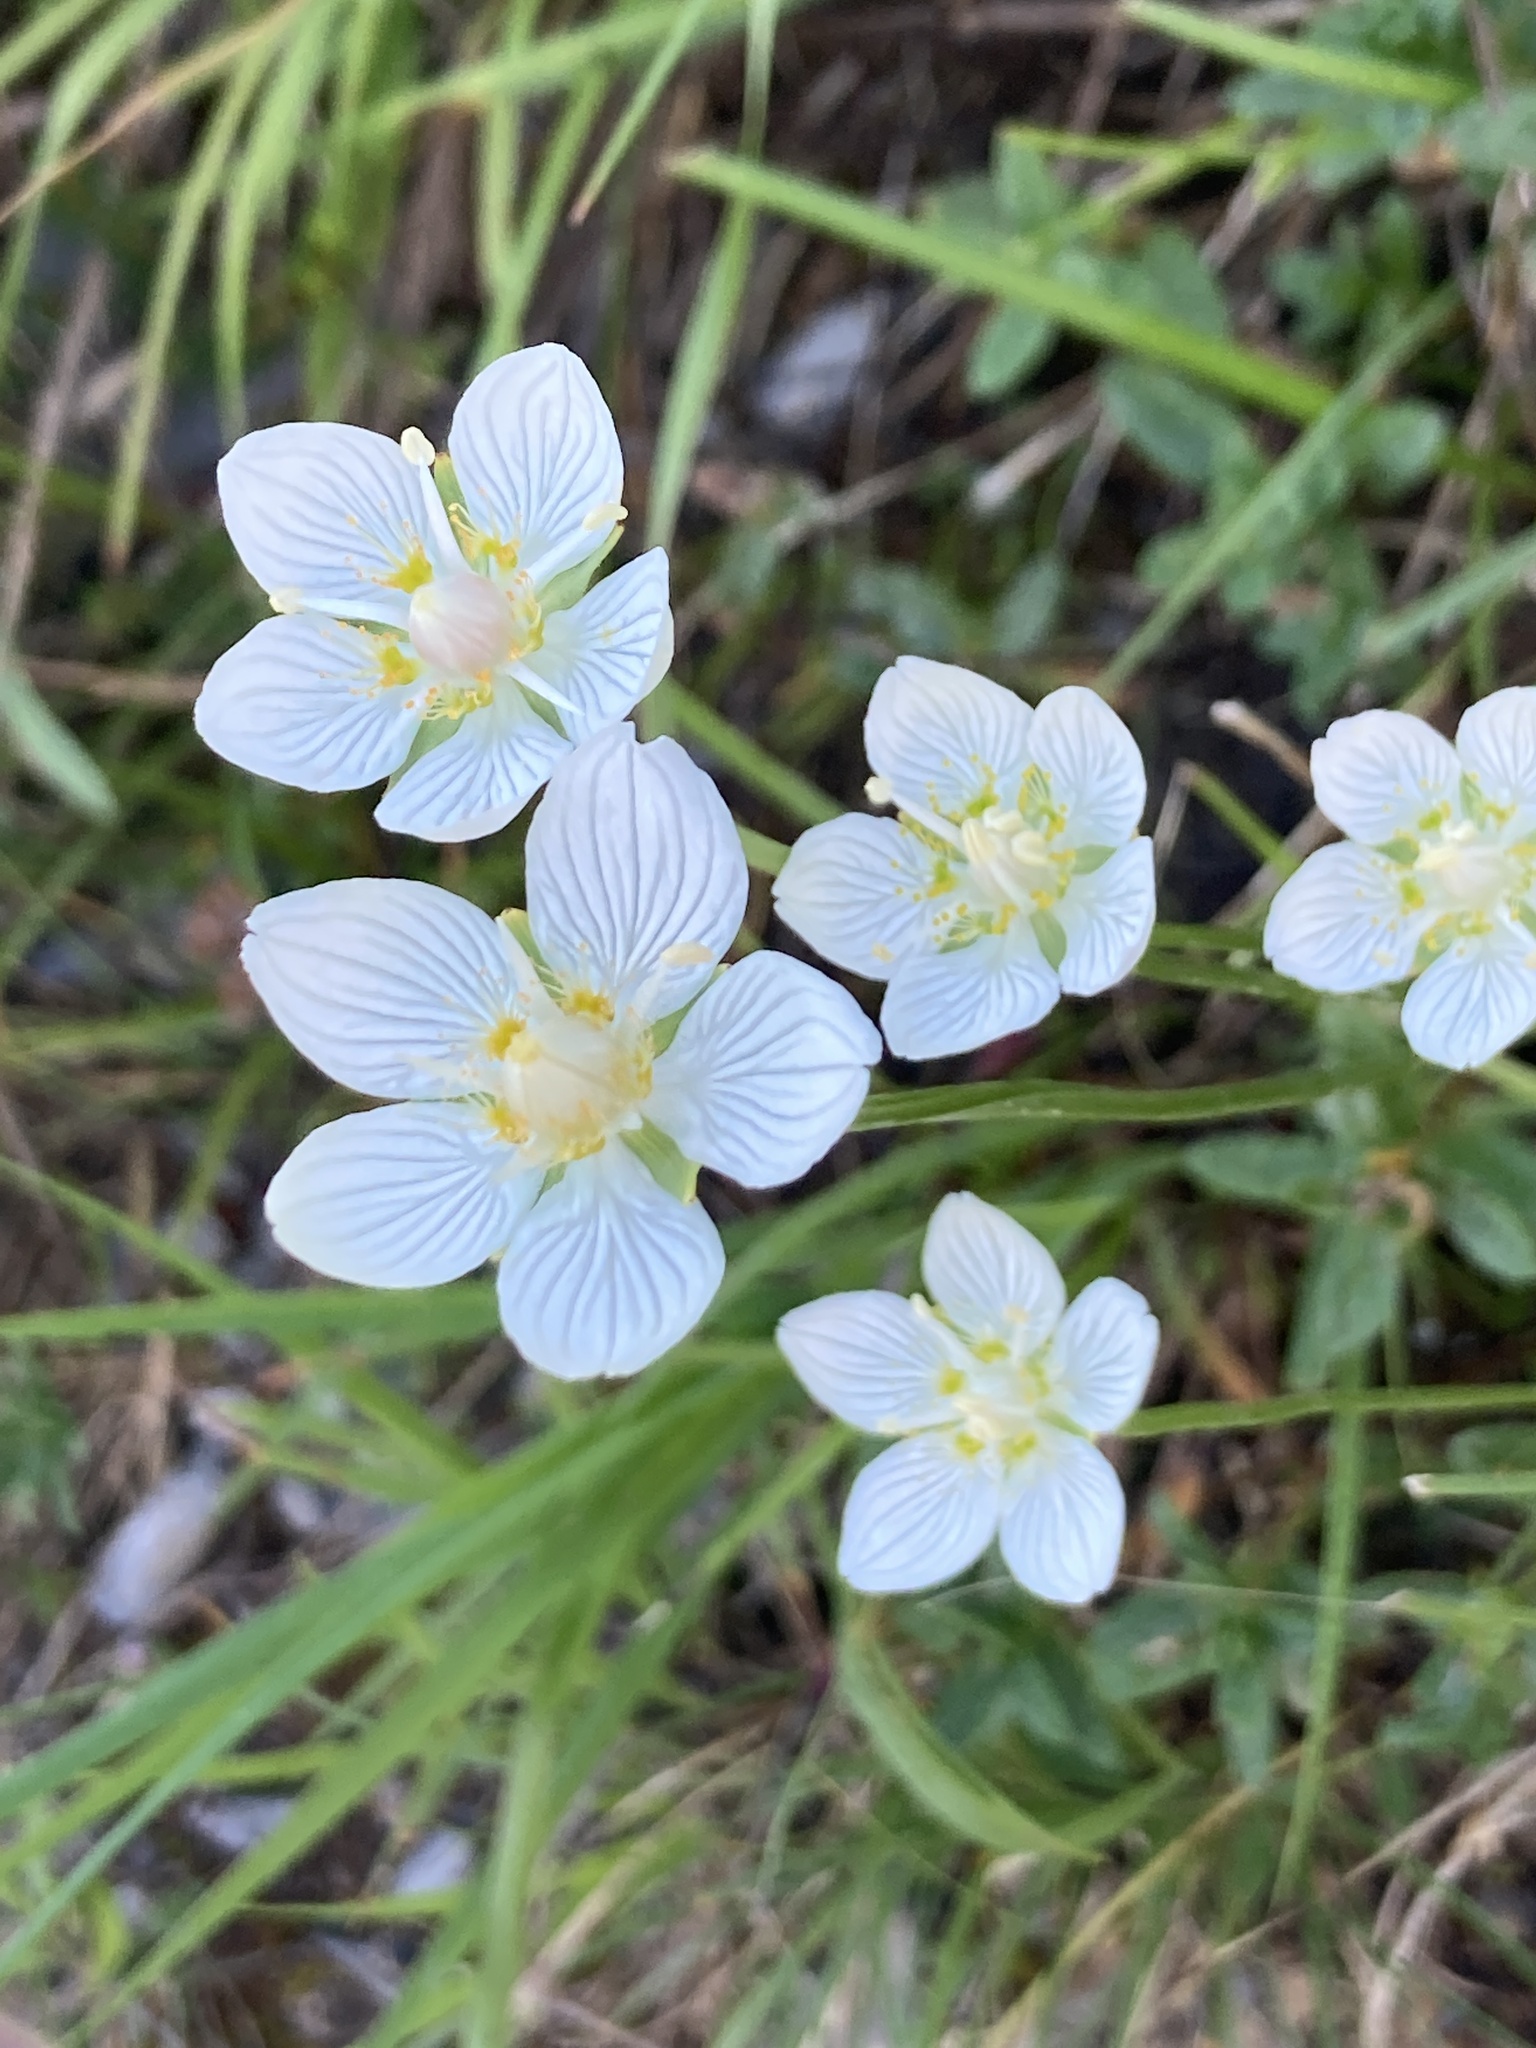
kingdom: Plantae
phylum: Tracheophyta
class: Magnoliopsida
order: Celastrales
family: Parnassiaceae
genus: Parnassia
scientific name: Parnassia palustris
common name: Grass-of-parnassus
